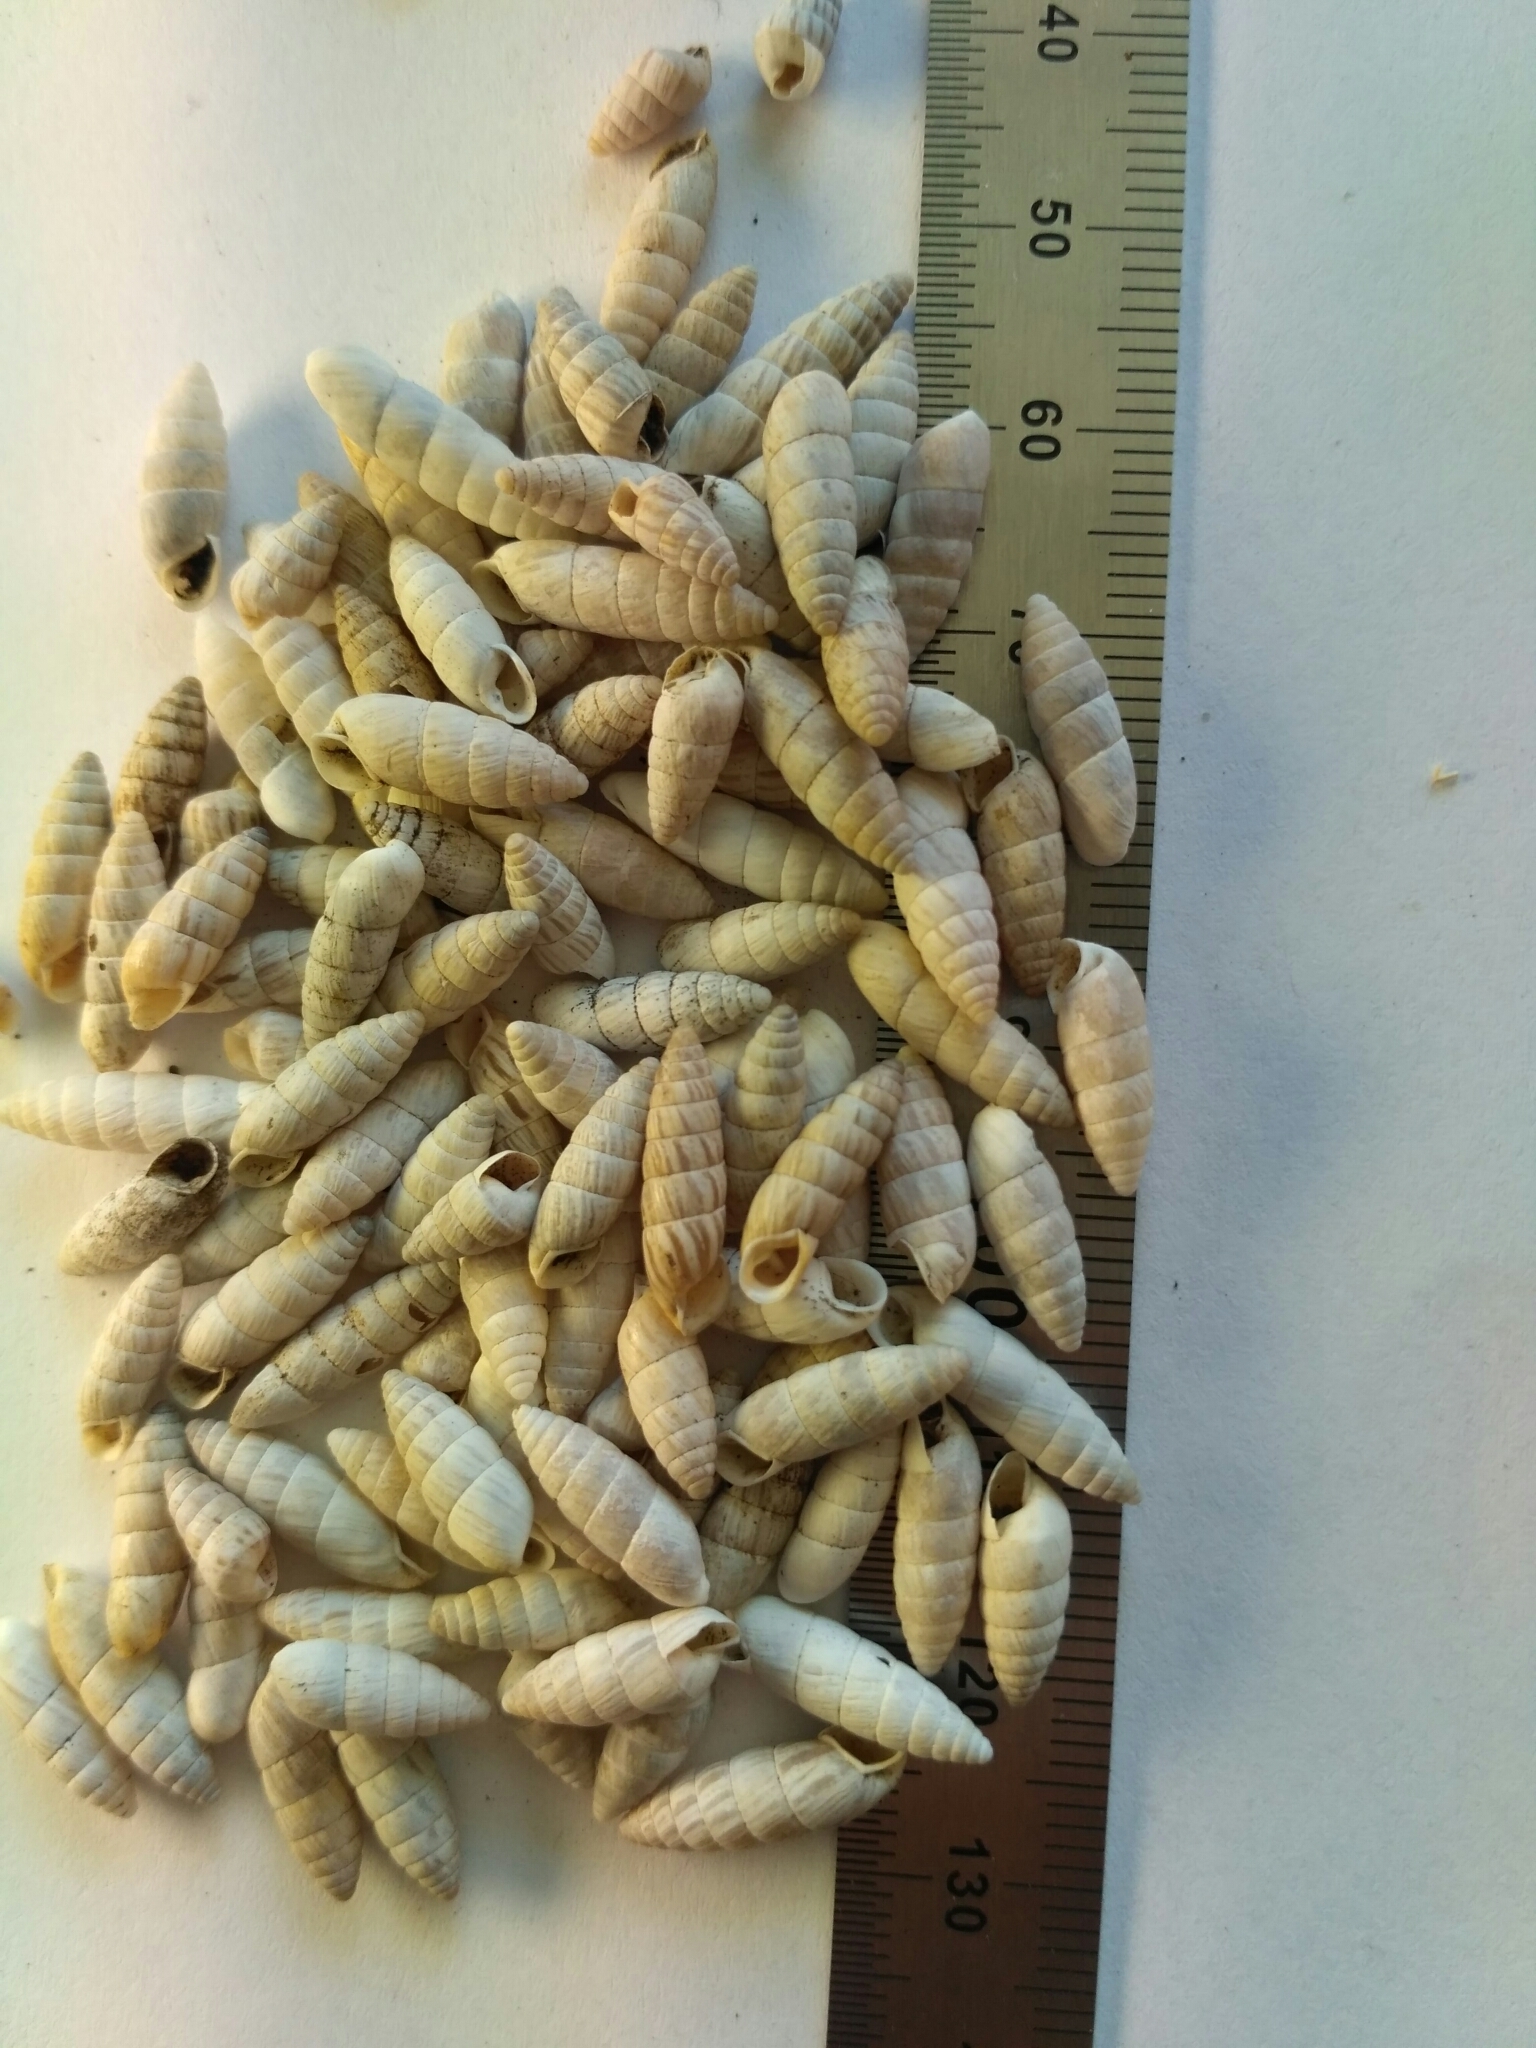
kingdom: Animalia
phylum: Mollusca
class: Gastropoda
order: Stylommatophora
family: Enidae
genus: Brephulopsis
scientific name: Brephulopsis bidens
